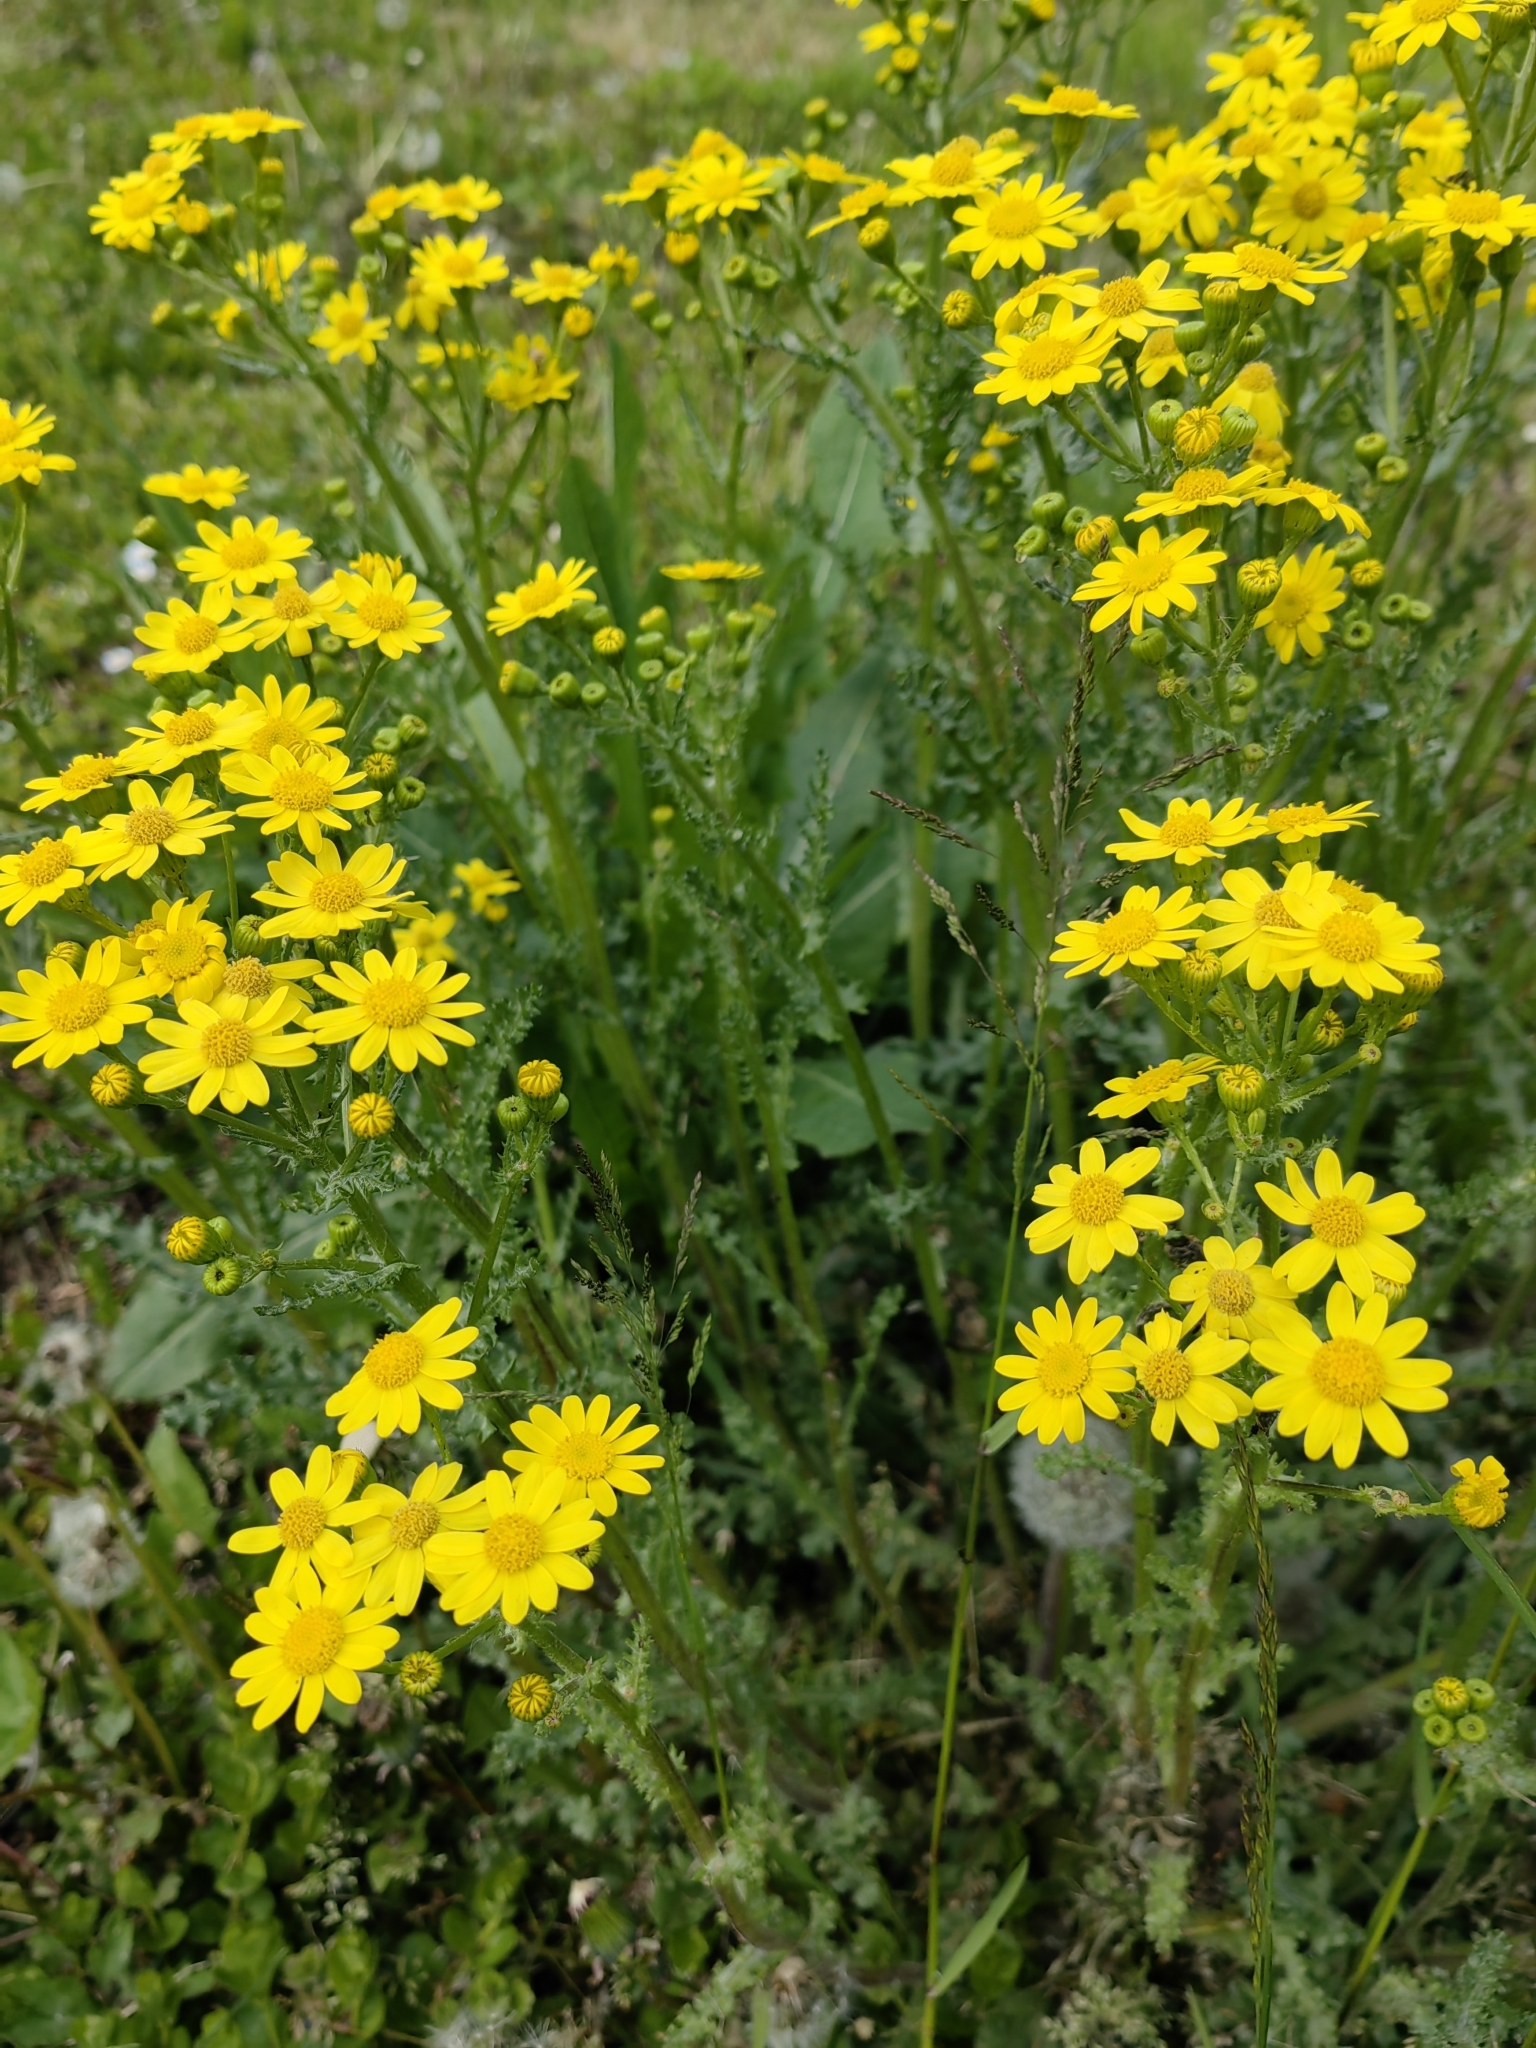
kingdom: Plantae
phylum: Tracheophyta
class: Magnoliopsida
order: Asterales
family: Asteraceae
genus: Senecio
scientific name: Senecio vernalis
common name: Eastern groundsel
